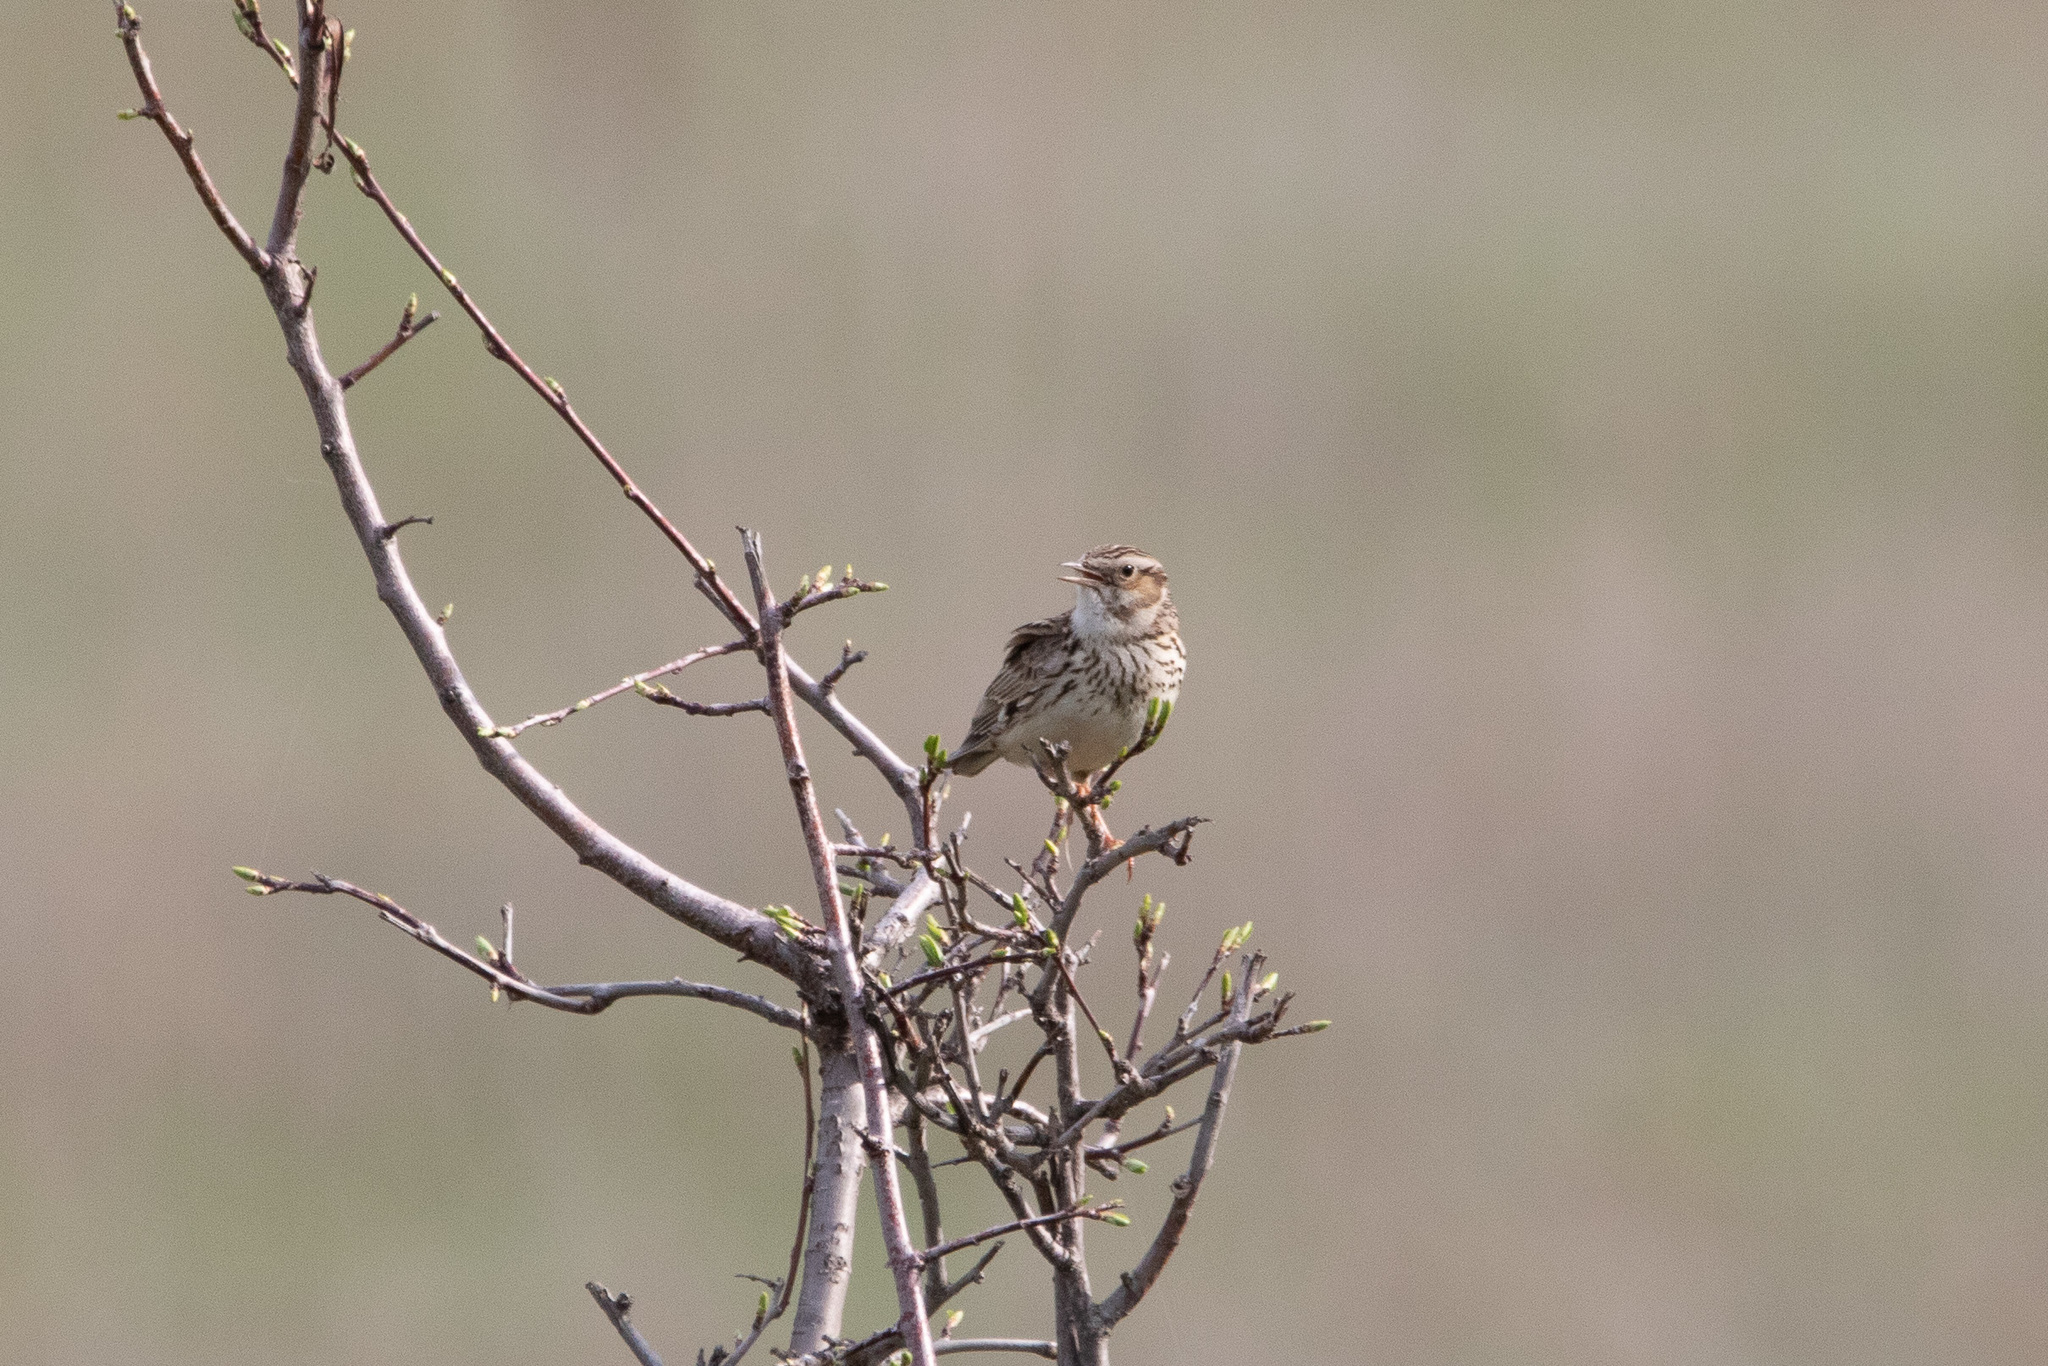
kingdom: Animalia
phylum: Chordata
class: Aves
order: Passeriformes
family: Alaudidae
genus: Lullula
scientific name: Lullula arborea
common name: Woodlark
